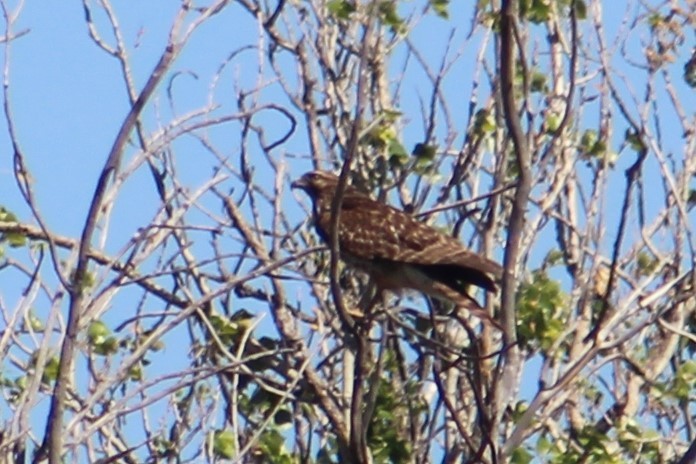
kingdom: Animalia
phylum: Chordata
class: Aves
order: Accipitriformes
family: Accipitridae
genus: Buteo
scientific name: Buteo lineatus
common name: Red-shouldered hawk
